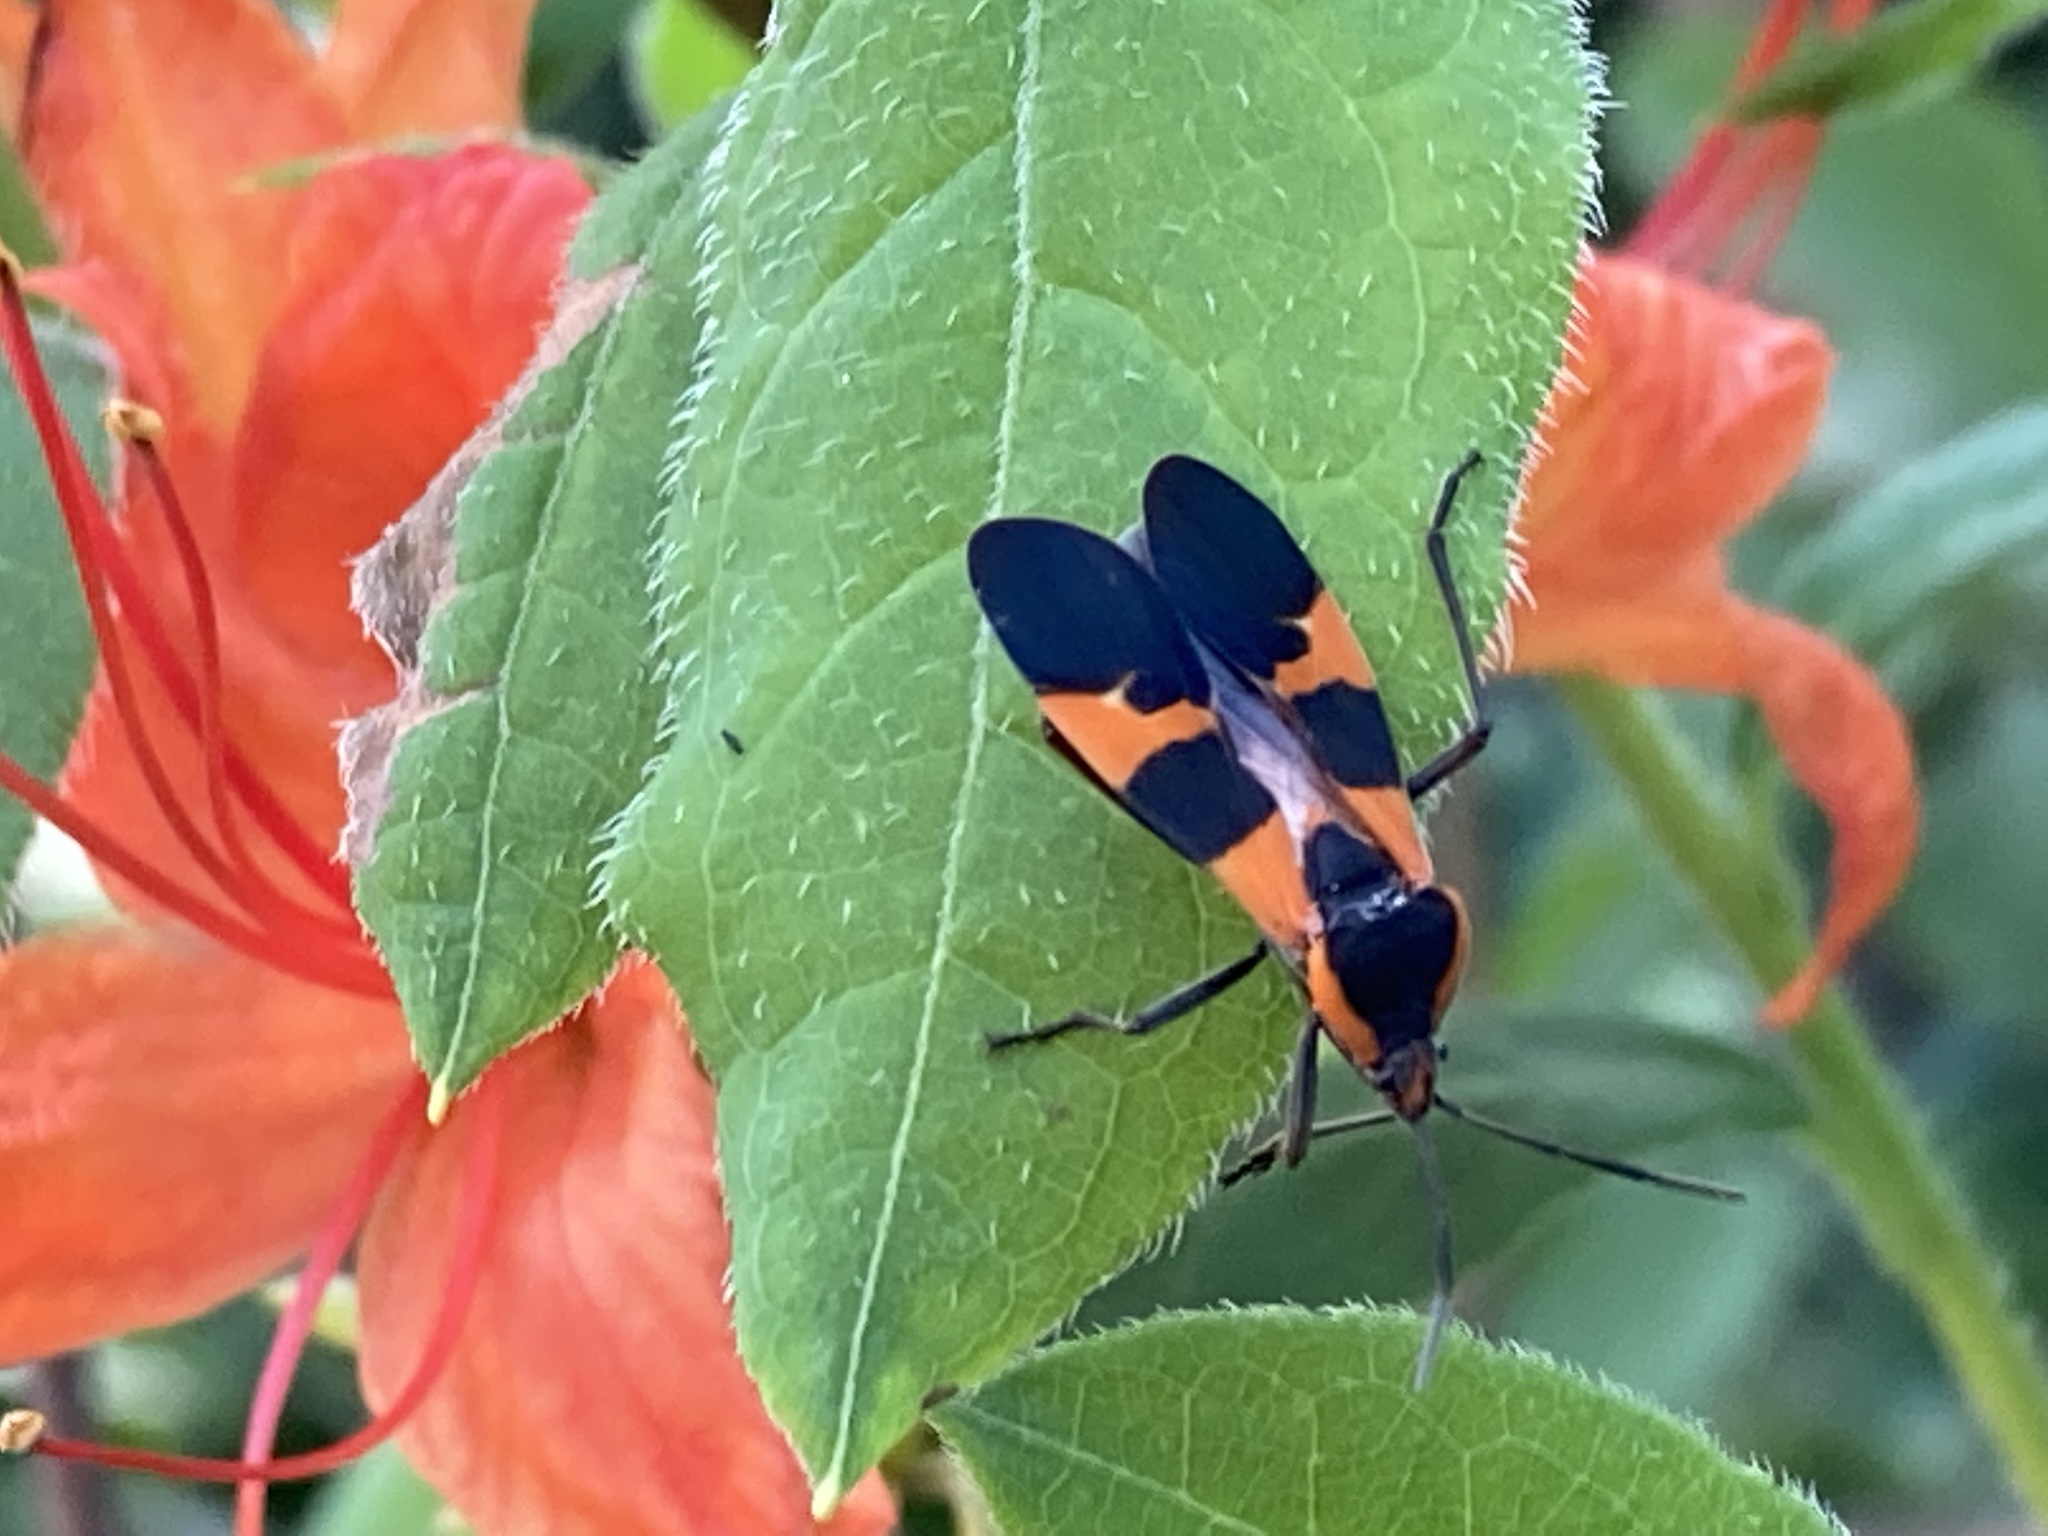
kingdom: Animalia
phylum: Arthropoda
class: Insecta
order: Hemiptera
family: Lygaeidae
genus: Oncopeltus
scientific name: Oncopeltus fasciatus
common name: Large milkweed bug
